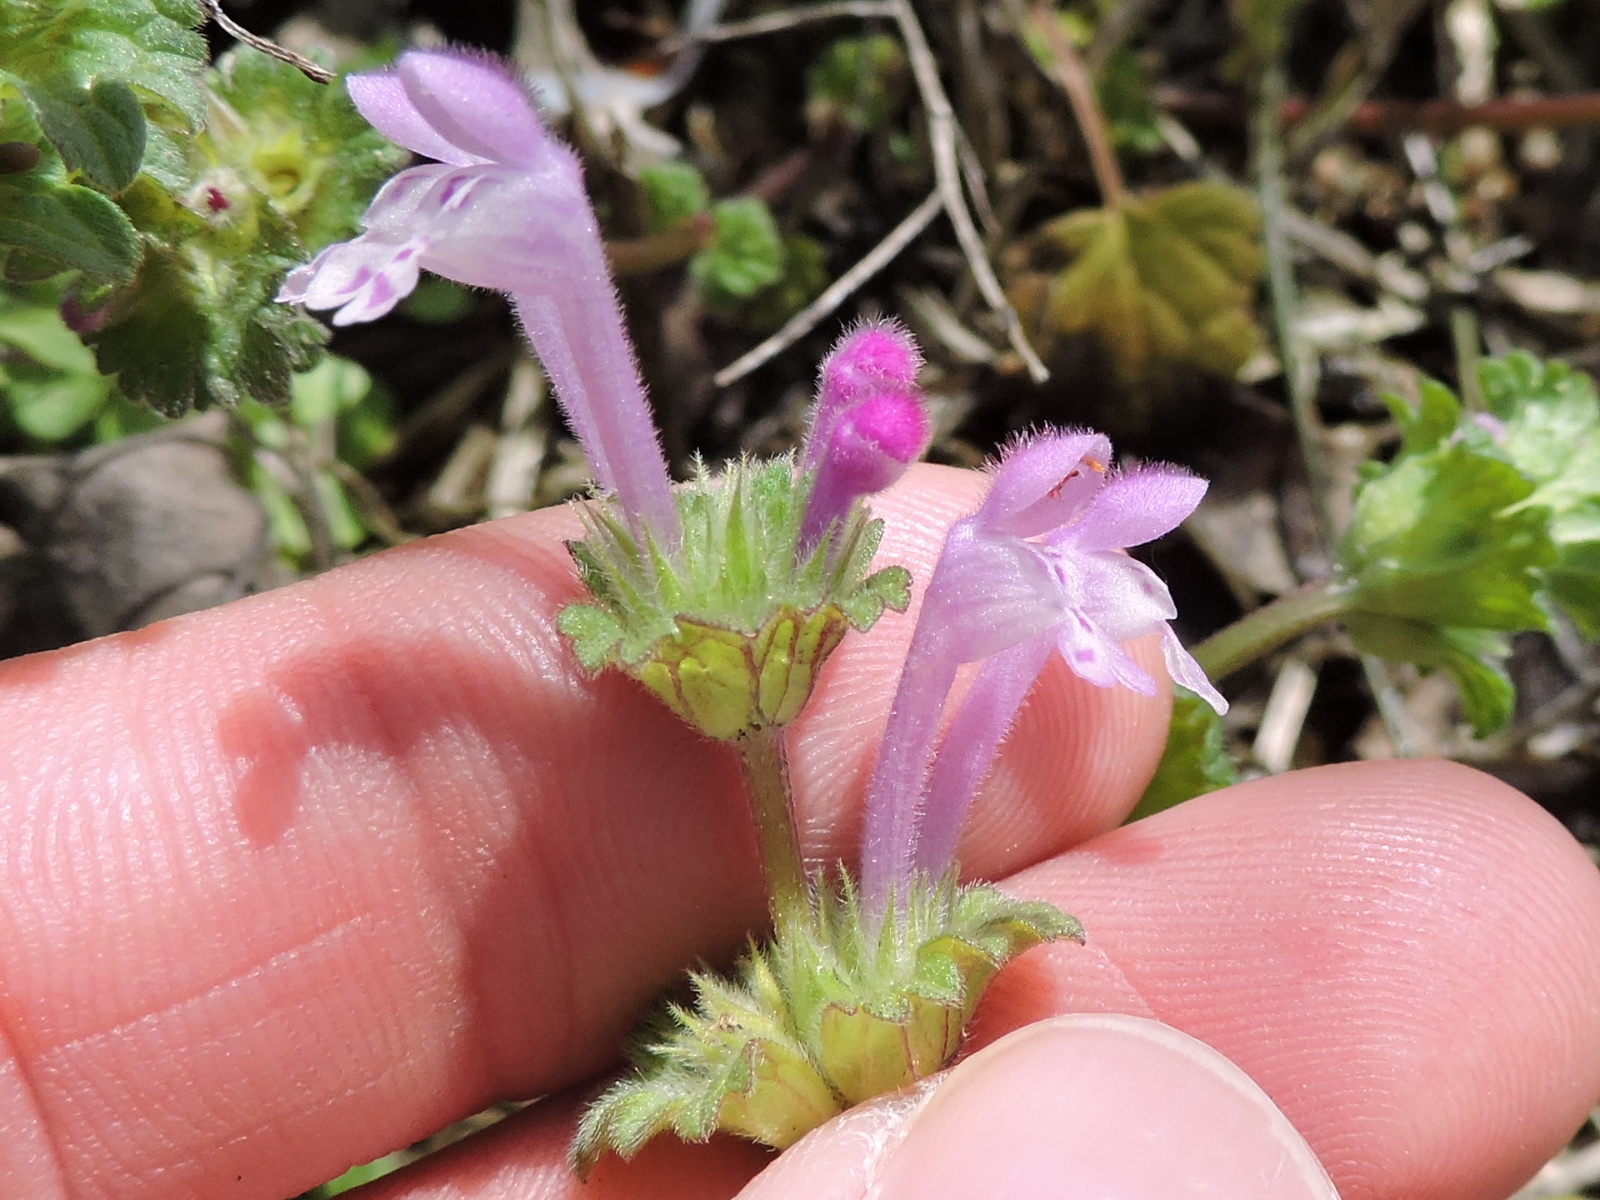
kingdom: Plantae
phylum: Tracheophyta
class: Magnoliopsida
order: Lamiales
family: Lamiaceae
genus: Lamium
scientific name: Lamium amplexicaule
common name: Henbit dead-nettle
